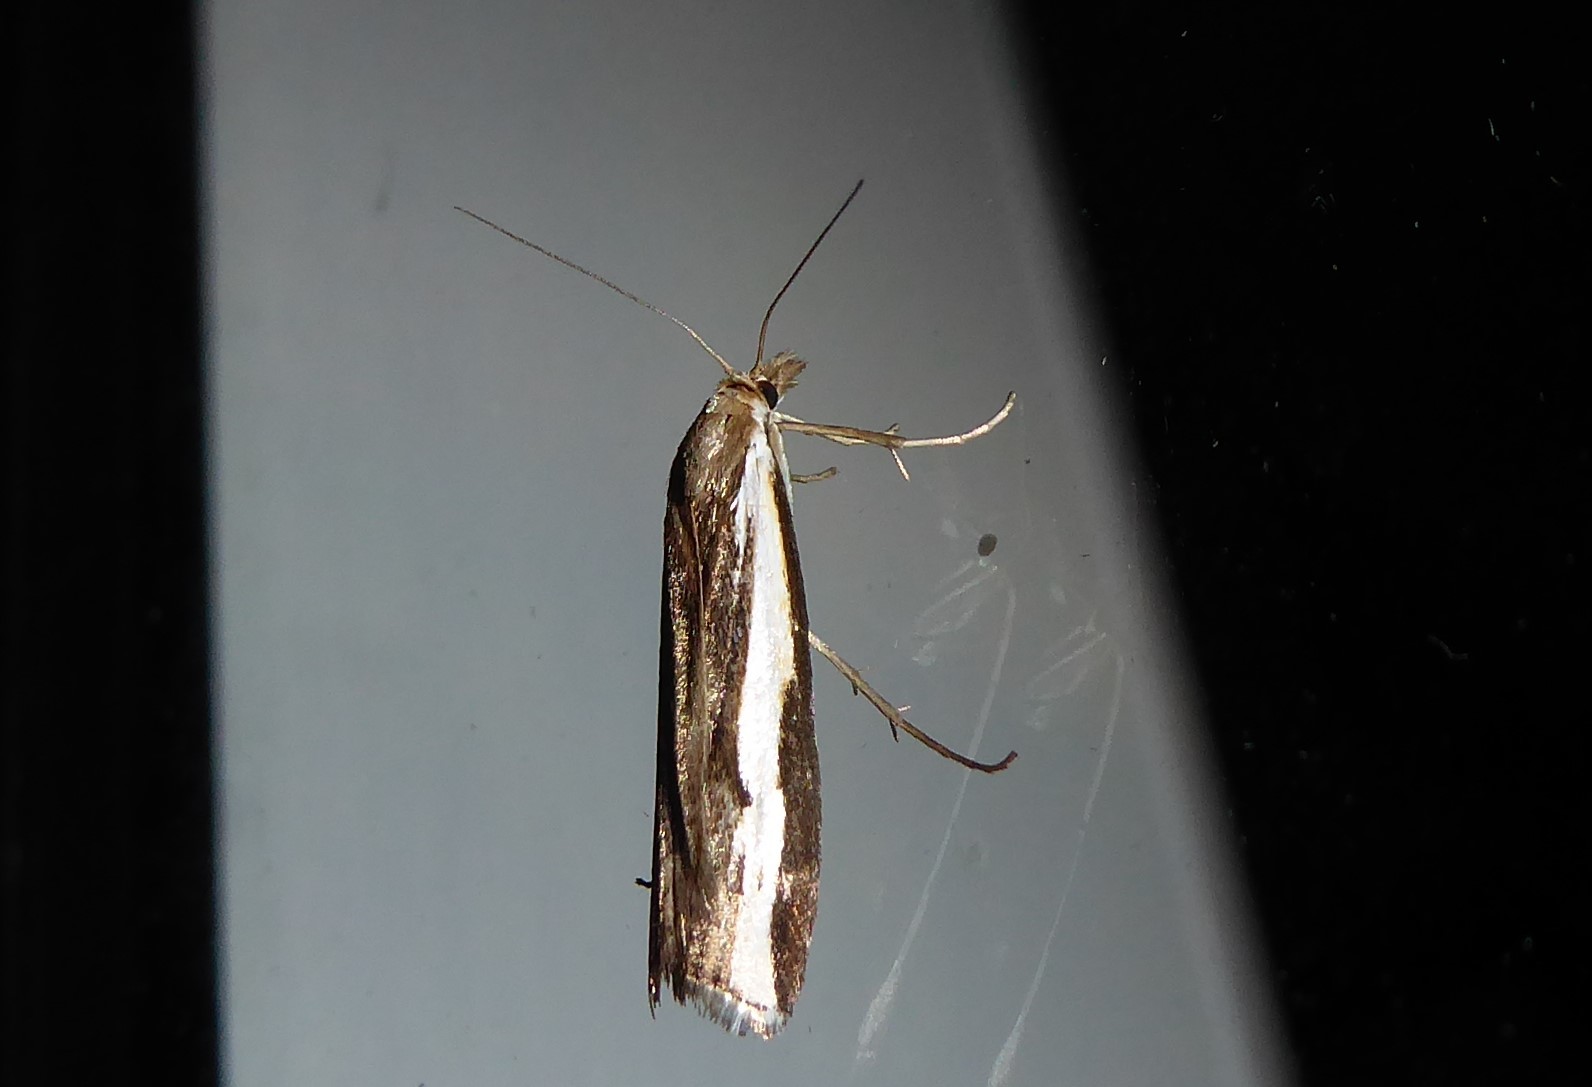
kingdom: Animalia
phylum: Arthropoda
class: Insecta
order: Lepidoptera
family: Crambidae
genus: Orocrambus
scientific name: Orocrambus flexuosellus
